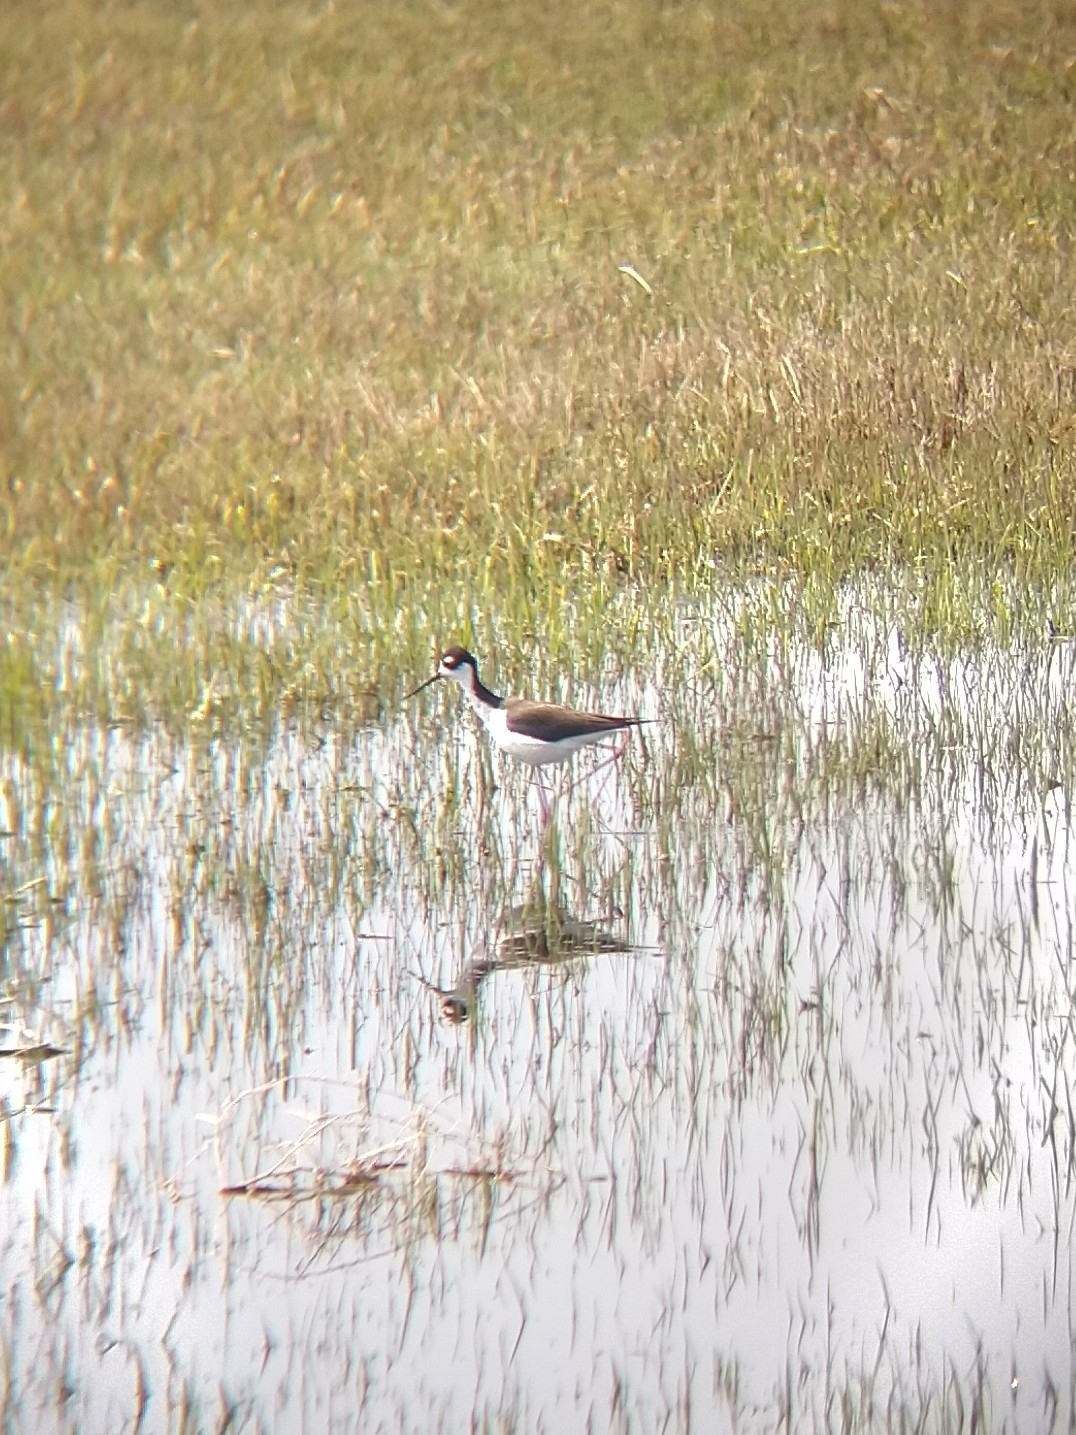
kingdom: Animalia
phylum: Chordata
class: Aves
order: Charadriiformes
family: Recurvirostridae
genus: Himantopus
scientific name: Himantopus mexicanus
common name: Black-necked stilt
